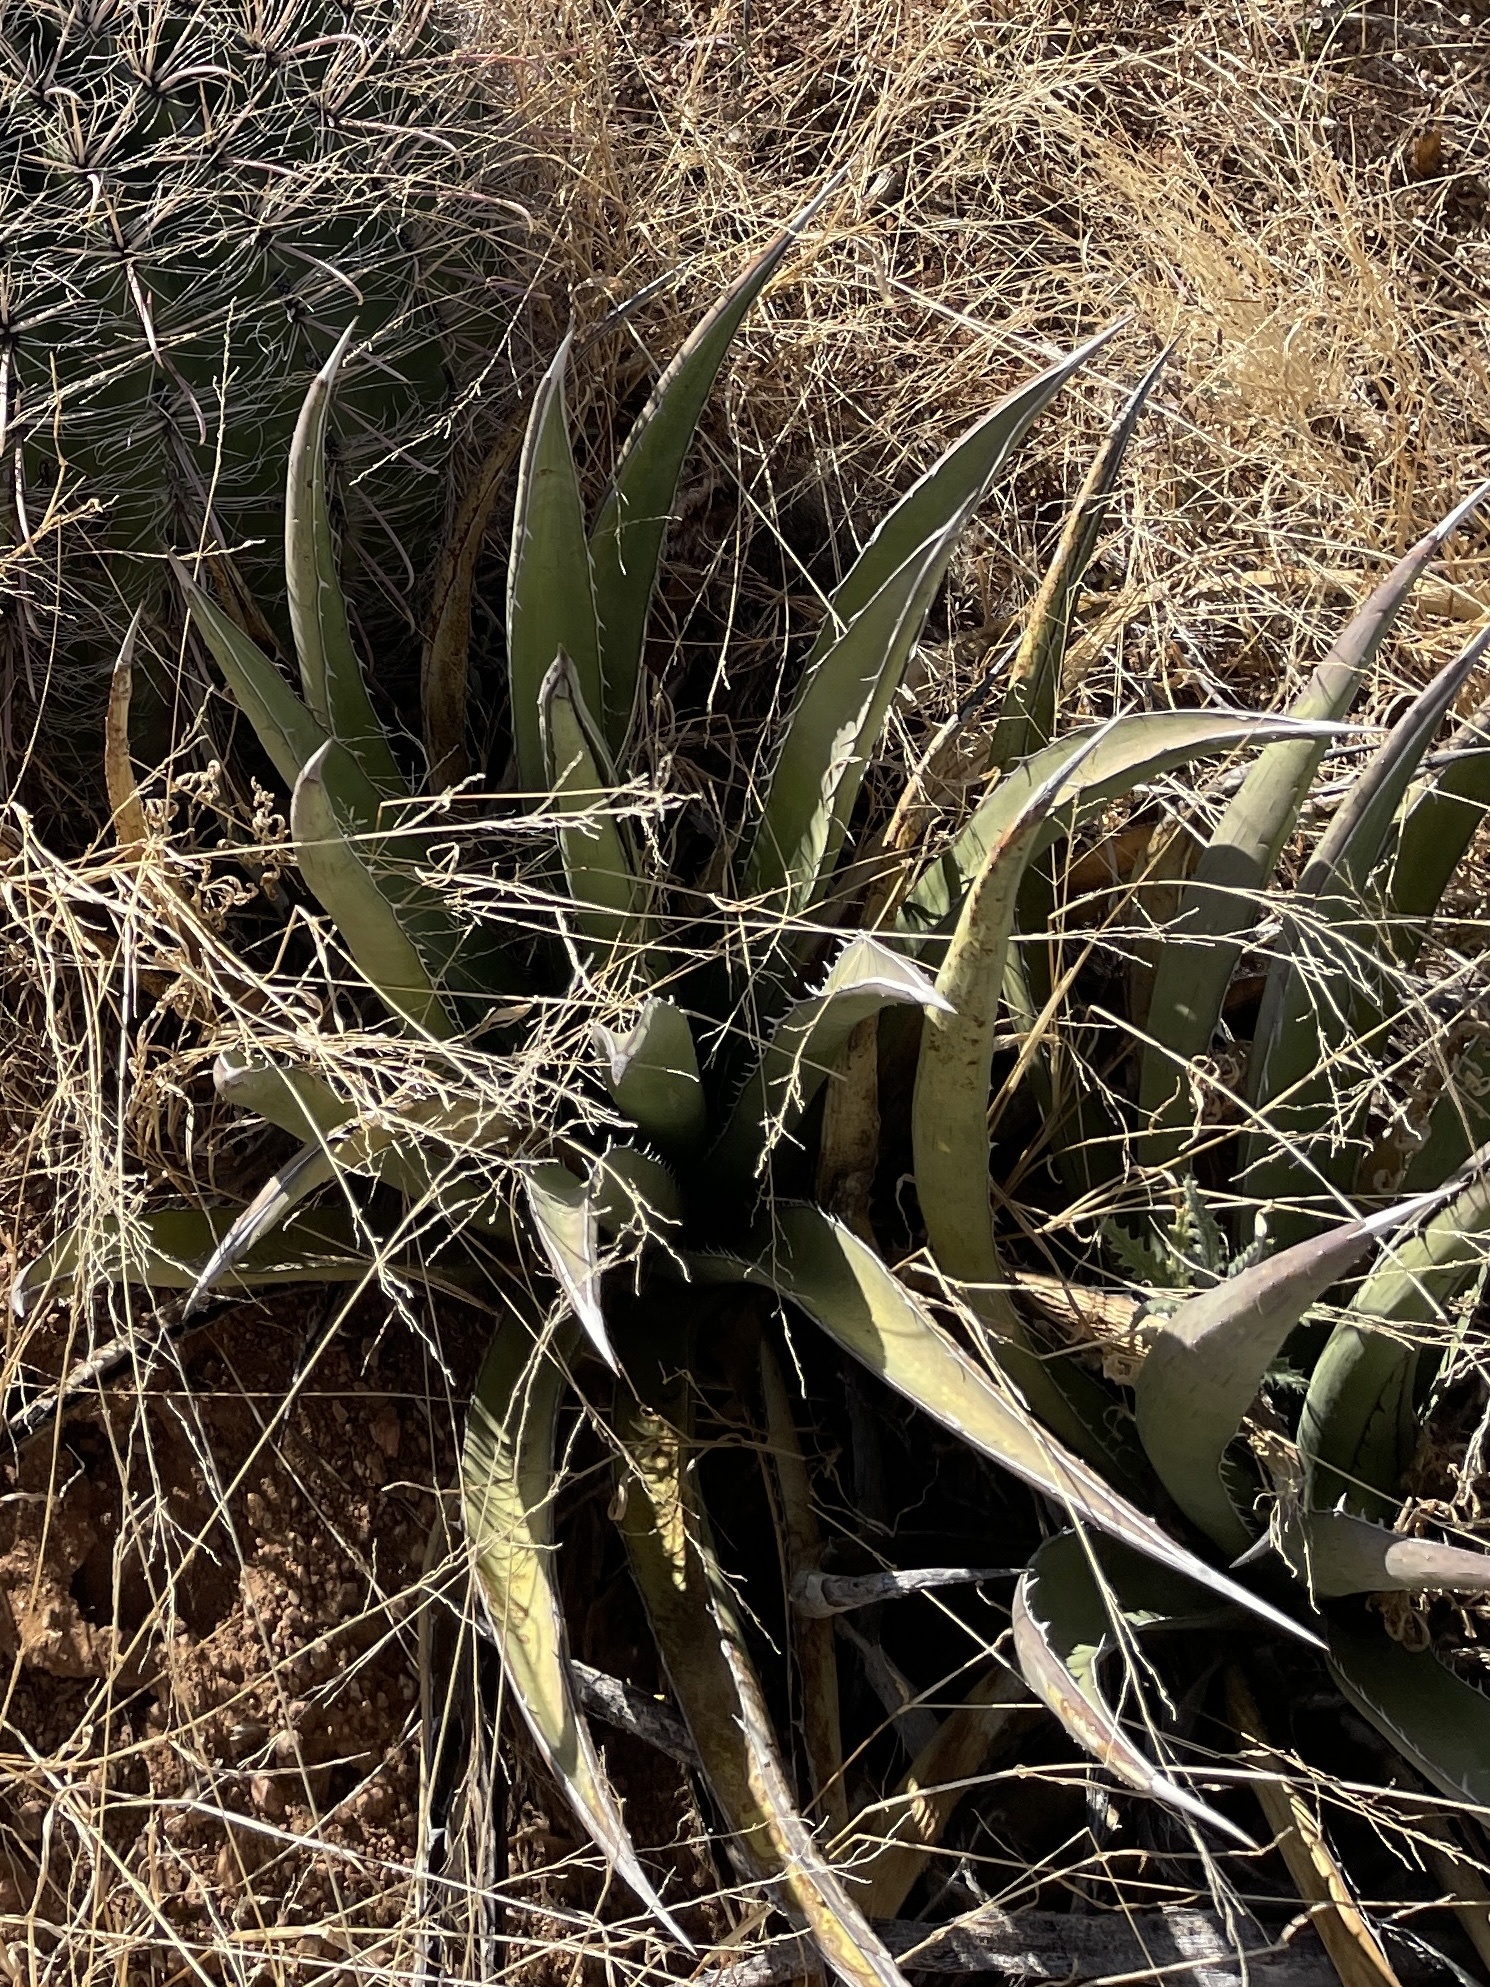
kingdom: Plantae
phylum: Tracheophyta
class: Liliopsida
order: Asparagales
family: Asparagaceae
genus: Agave
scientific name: Agave lechuguilla
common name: Lecheguilla agave
